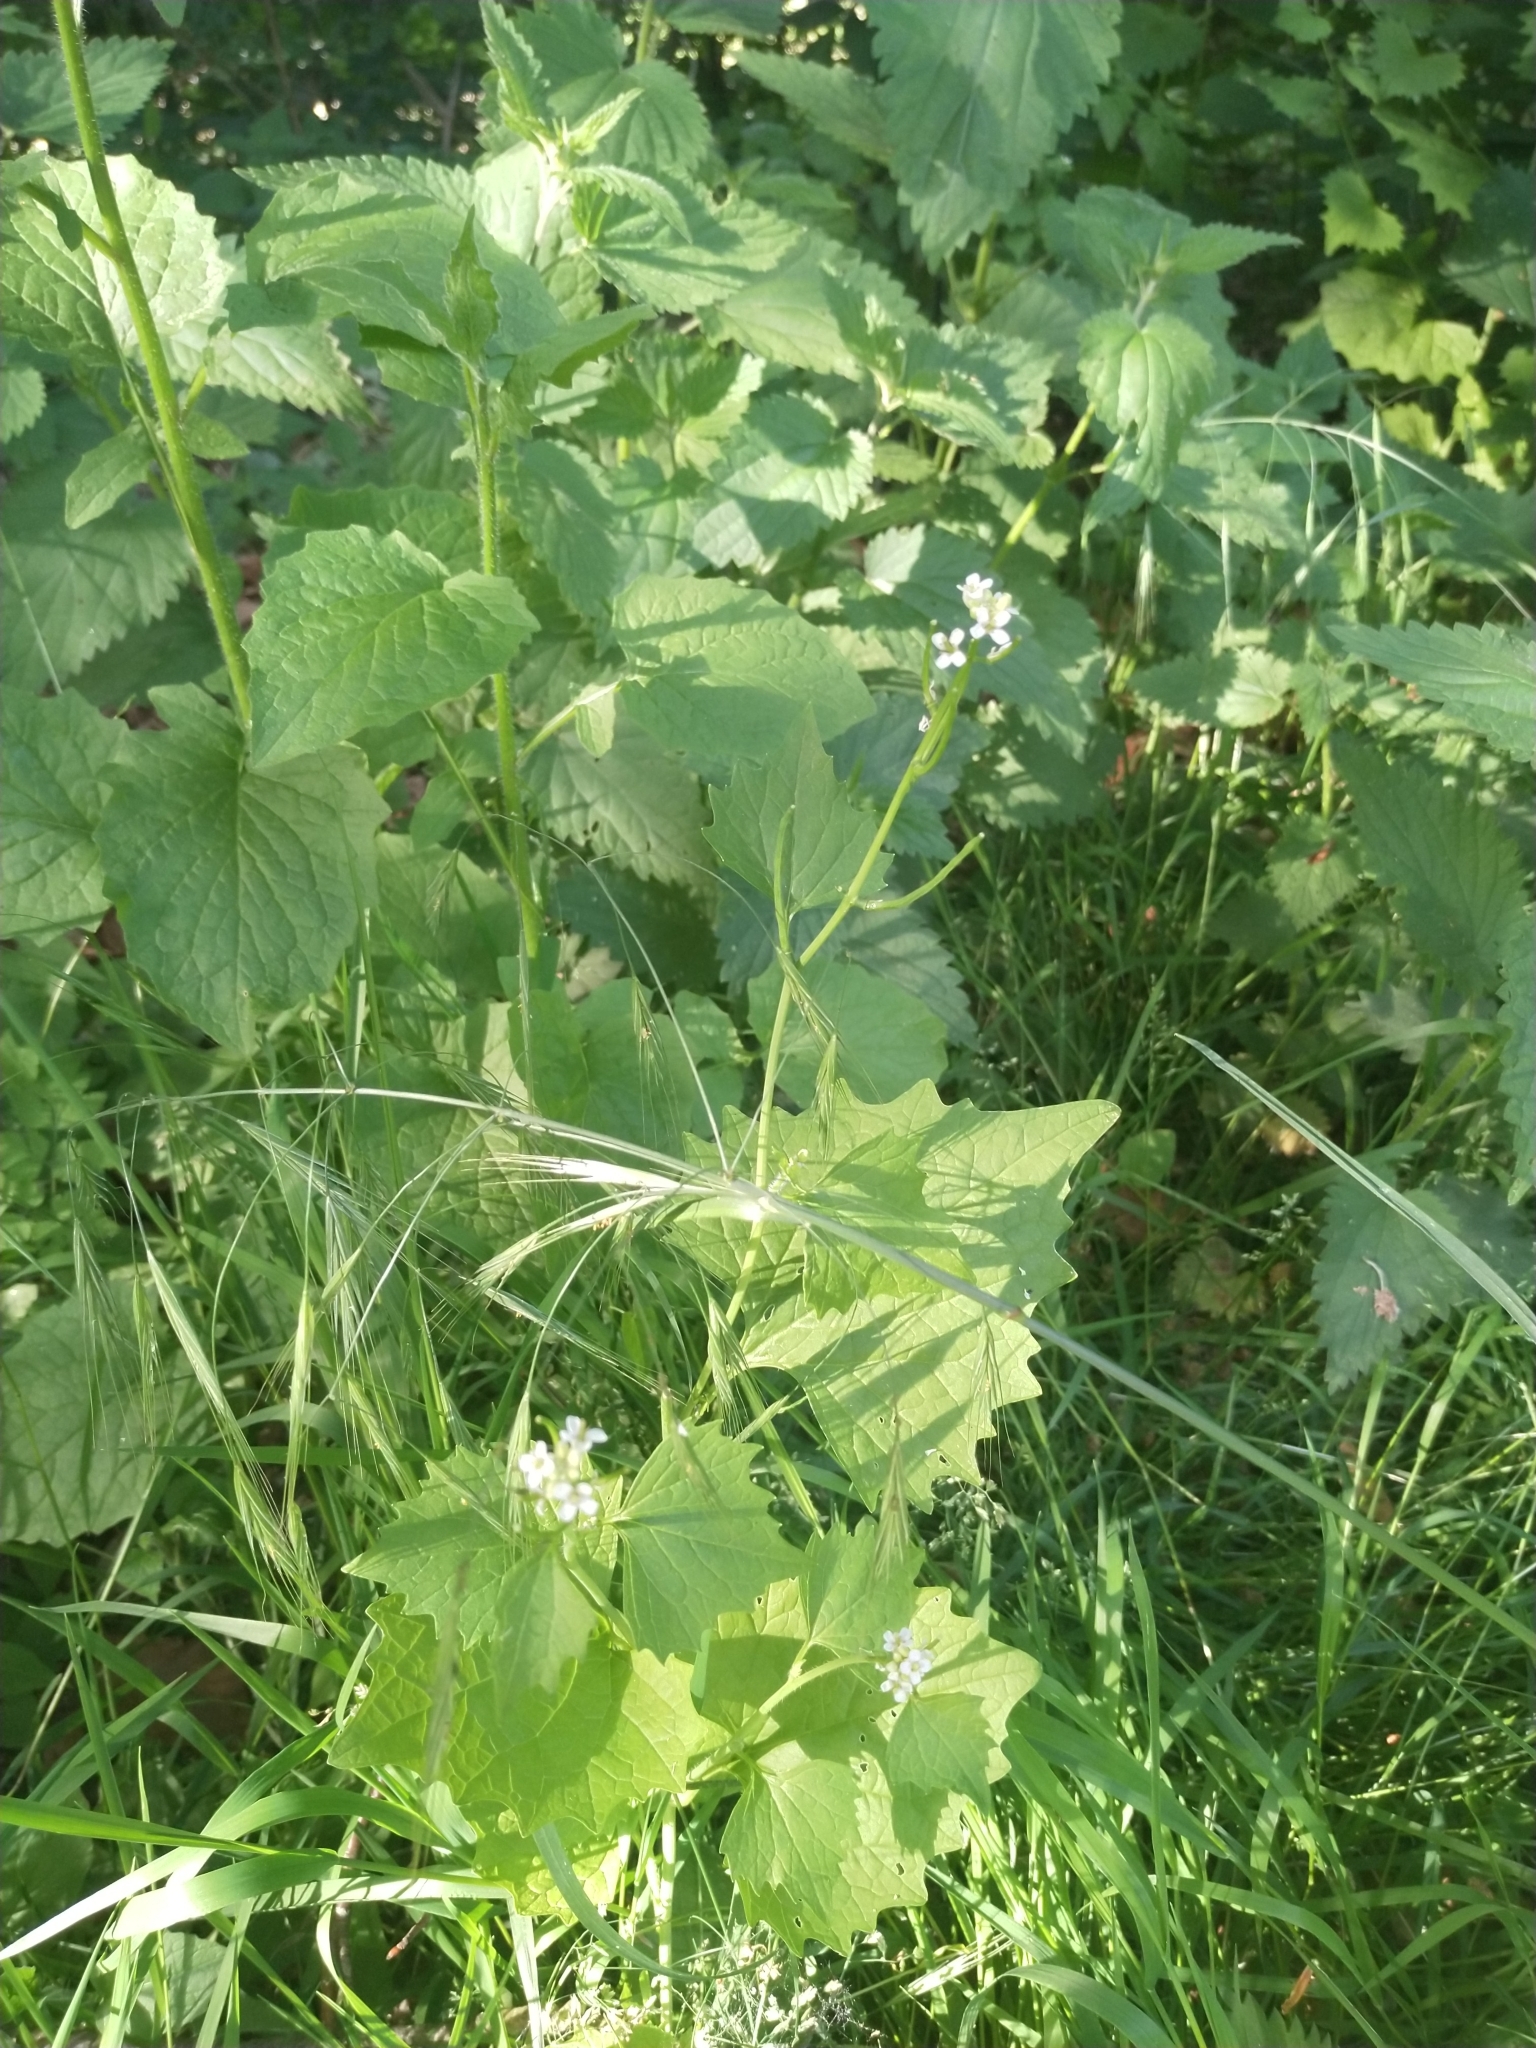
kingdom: Plantae
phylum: Tracheophyta
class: Magnoliopsida
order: Brassicales
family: Brassicaceae
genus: Alliaria
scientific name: Alliaria petiolata
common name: Garlic mustard
